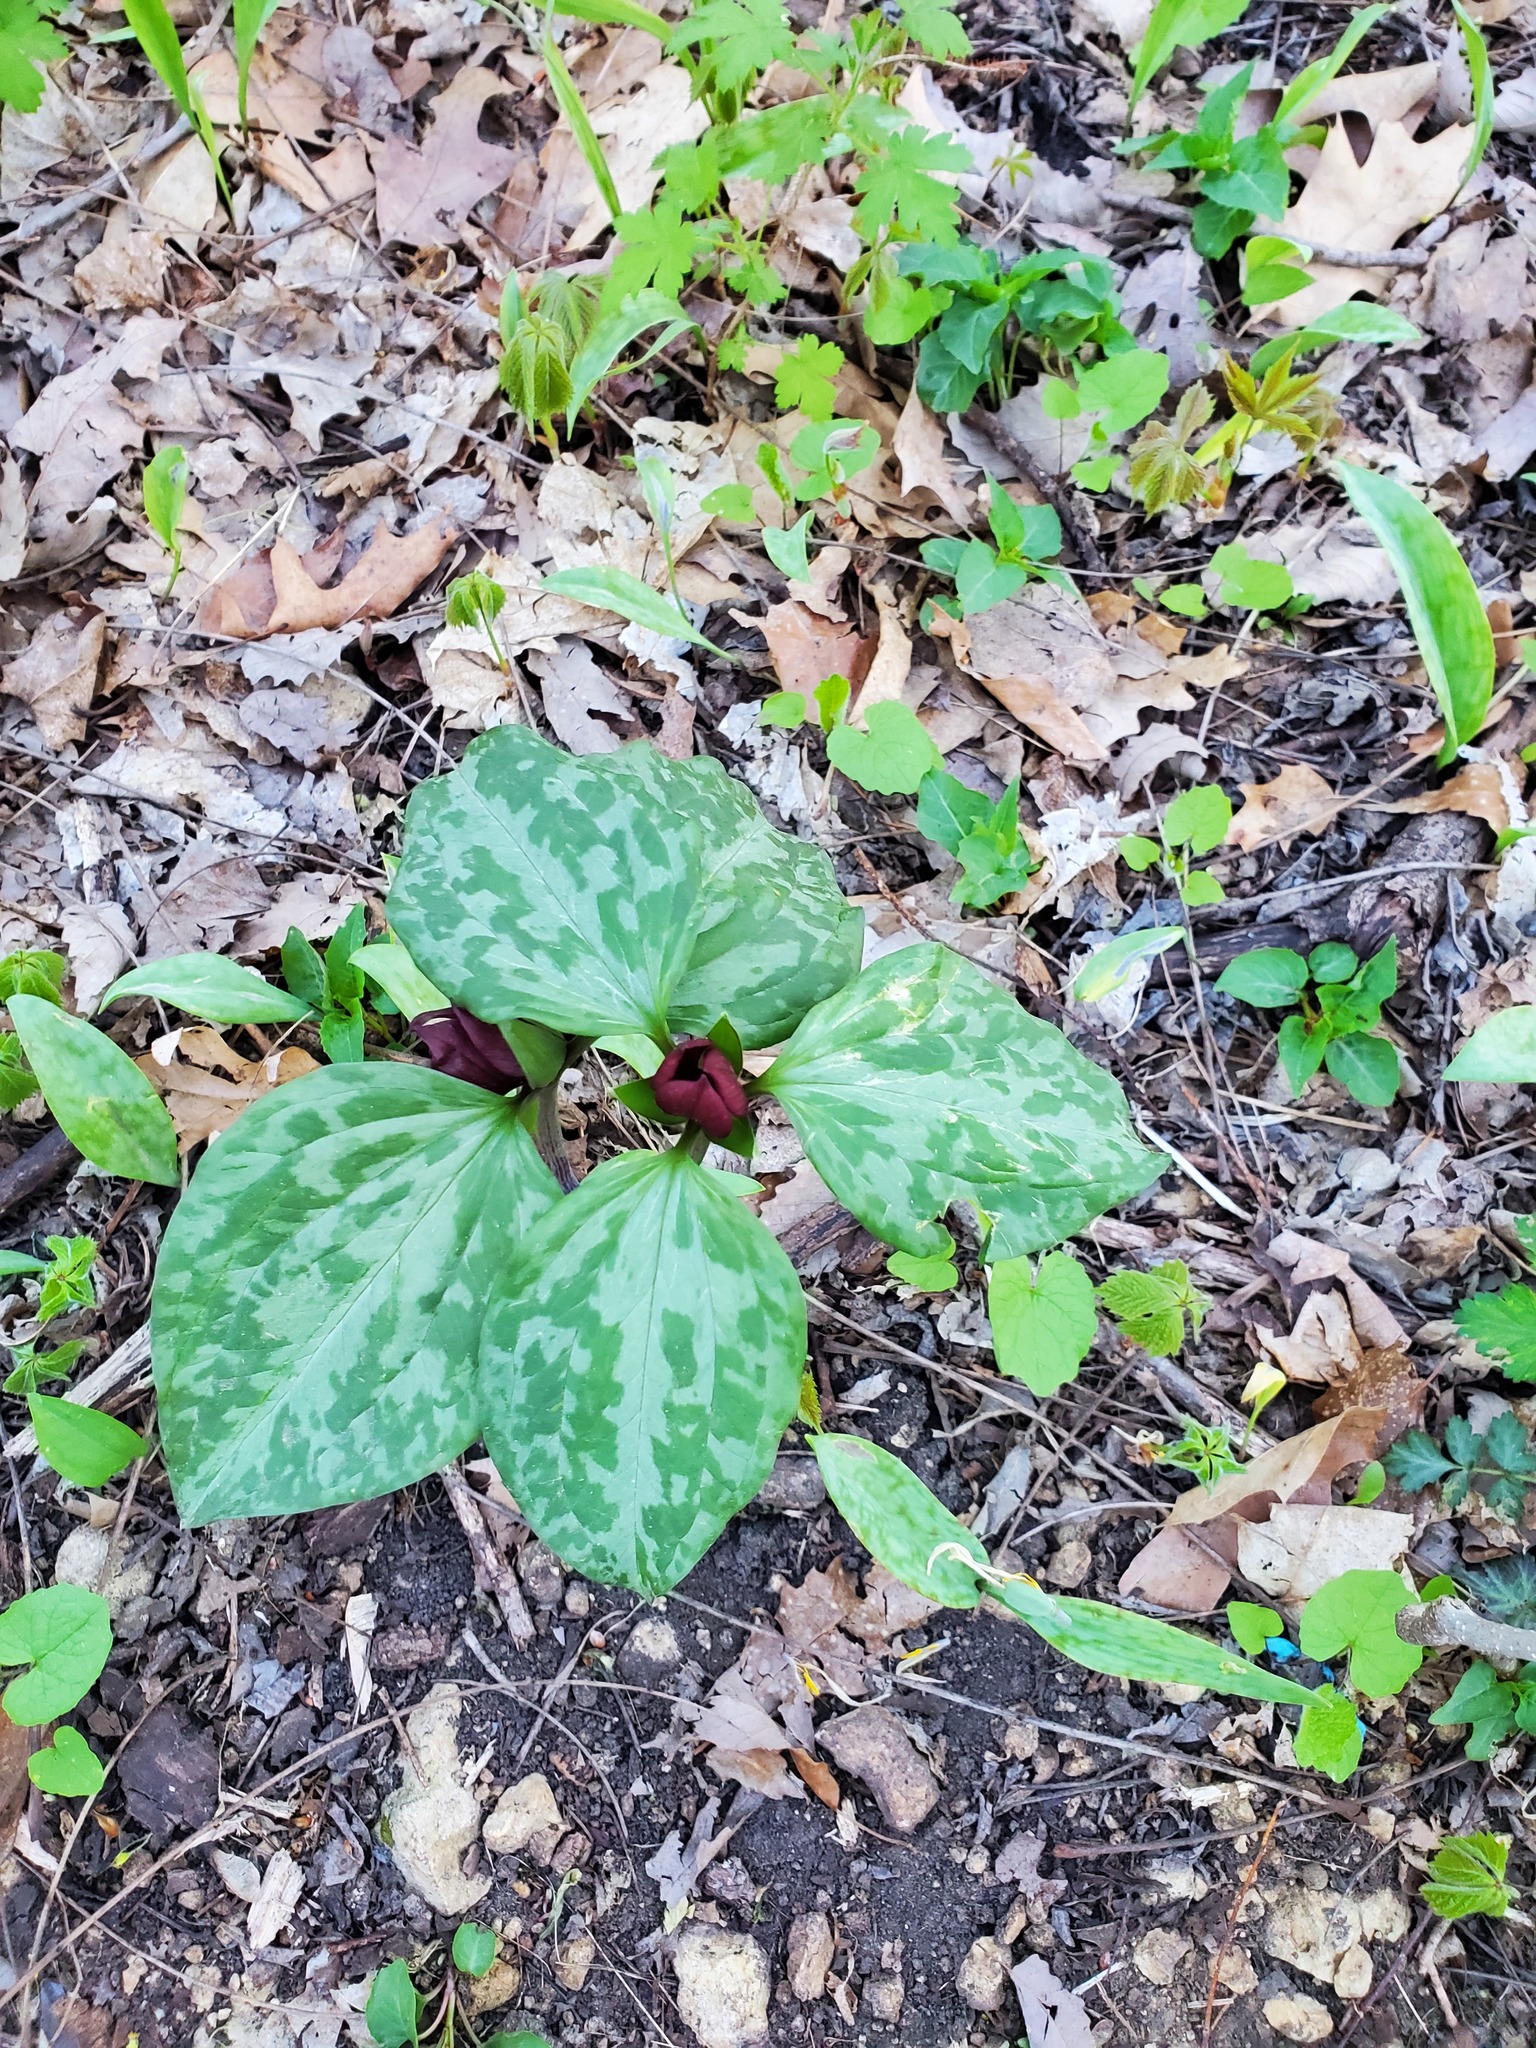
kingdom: Plantae
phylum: Tracheophyta
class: Liliopsida
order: Liliales
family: Melanthiaceae
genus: Trillium
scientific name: Trillium recurvatum
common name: Bloody butcher
